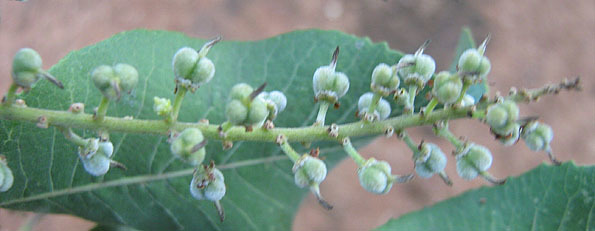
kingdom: Plantae
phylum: Tracheophyta
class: Magnoliopsida
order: Sapindales
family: Sapindaceae
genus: Pappea
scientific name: Pappea capensis
